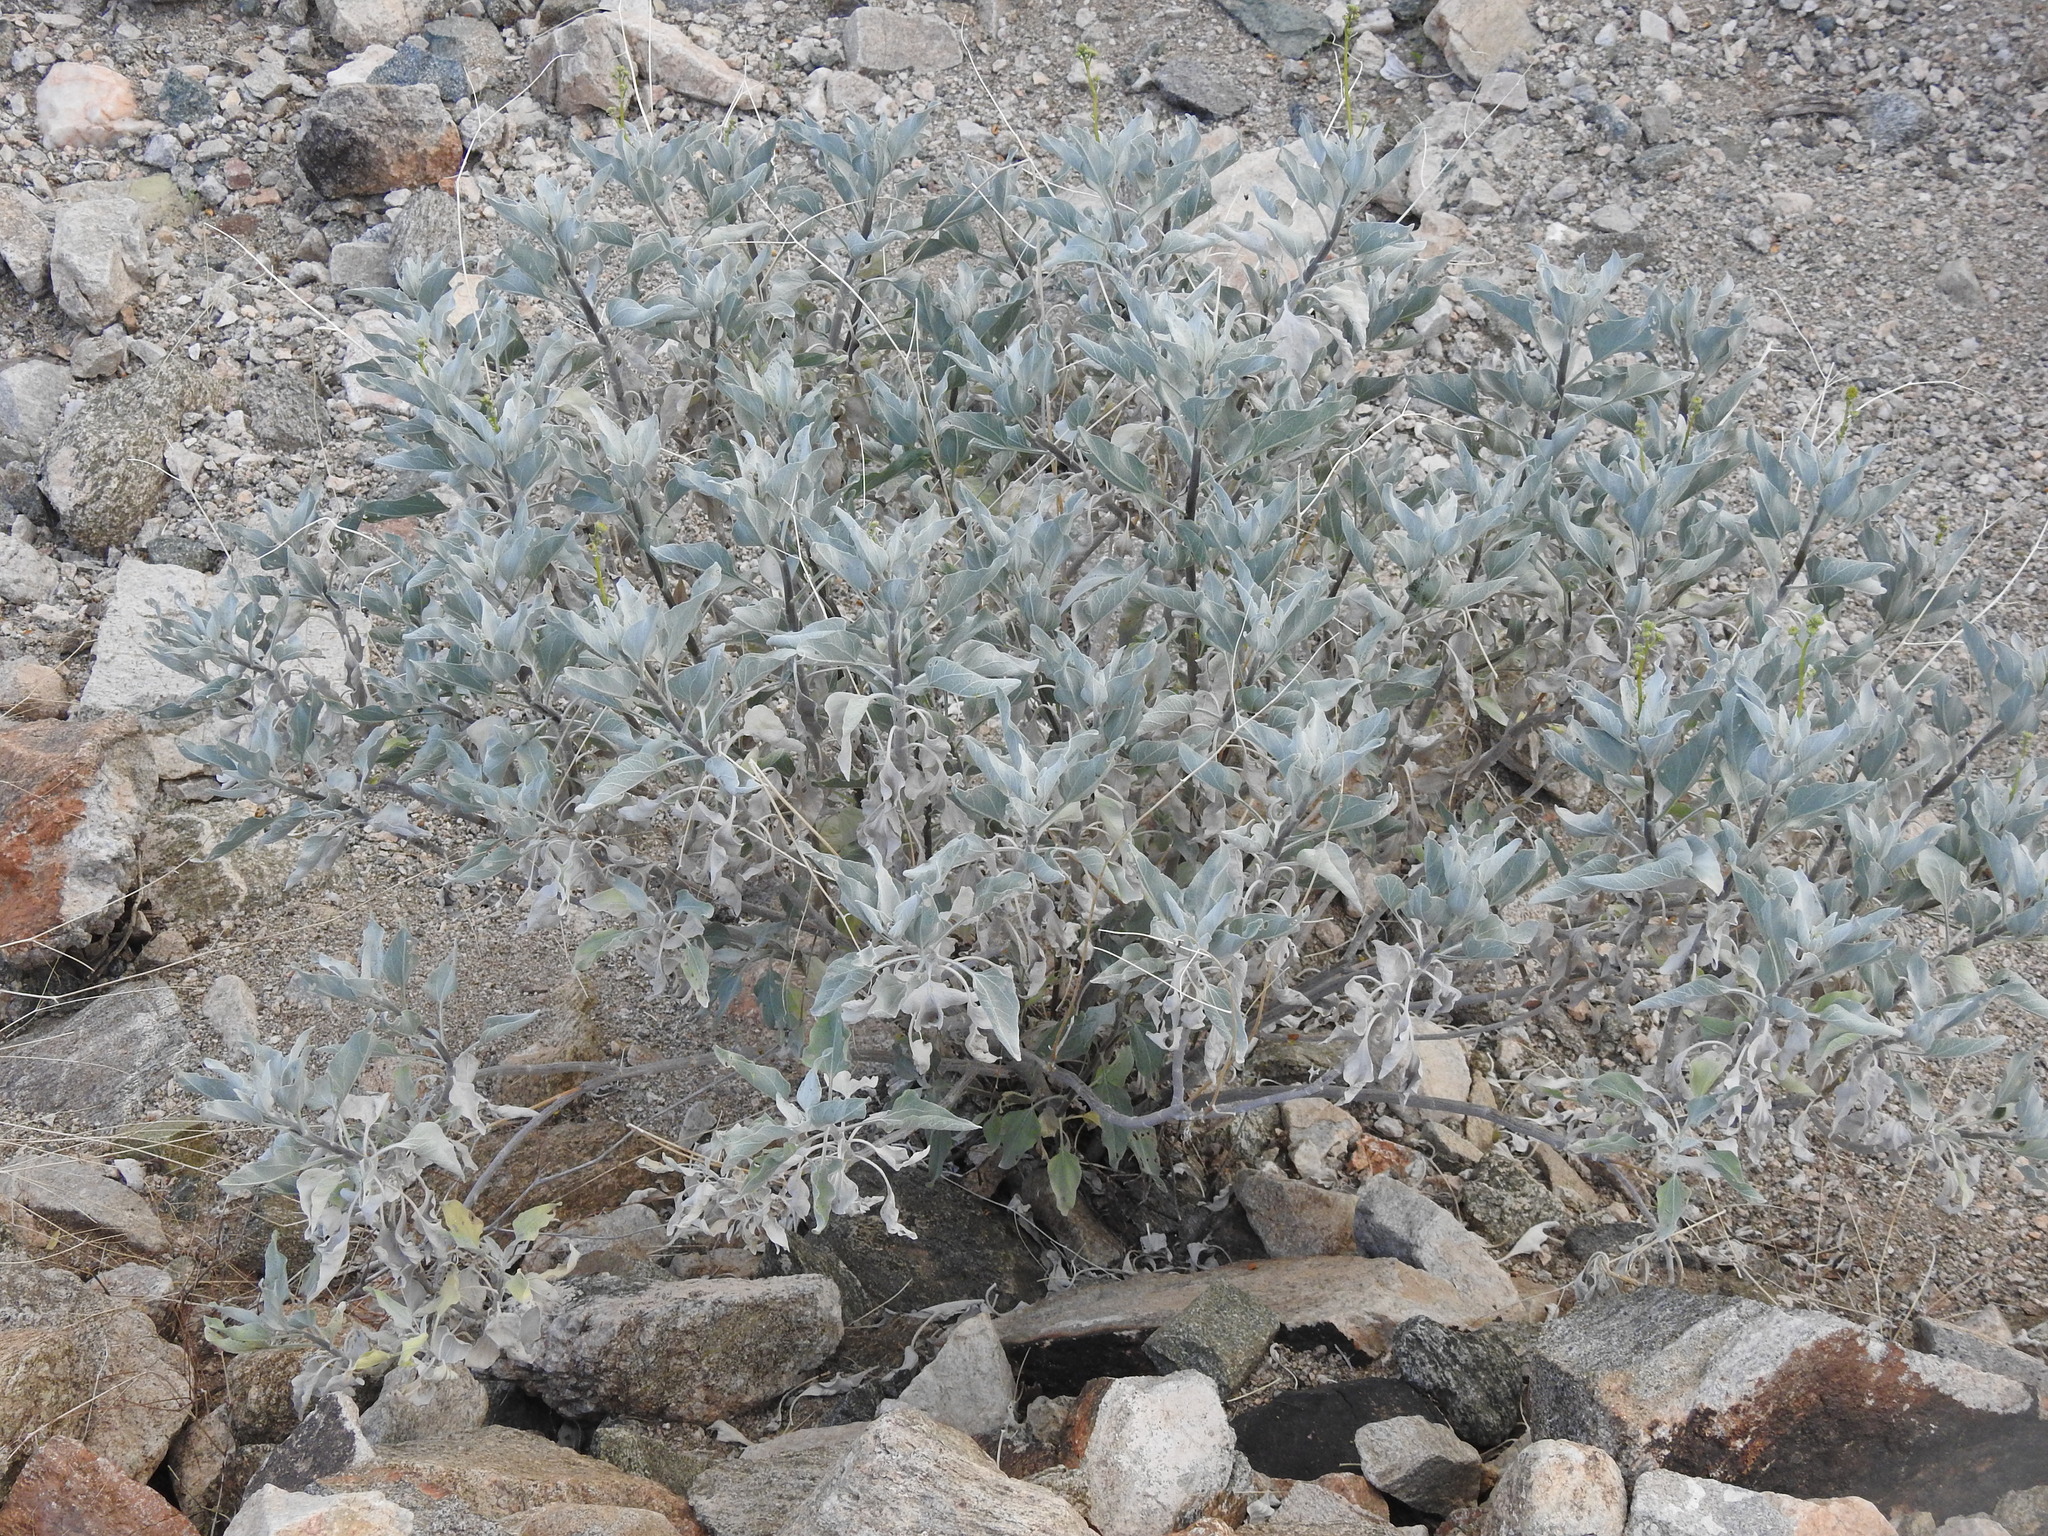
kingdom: Plantae
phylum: Tracheophyta
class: Magnoliopsida
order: Asterales
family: Asteraceae
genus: Encelia
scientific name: Encelia farinosa
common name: Brittlebush
